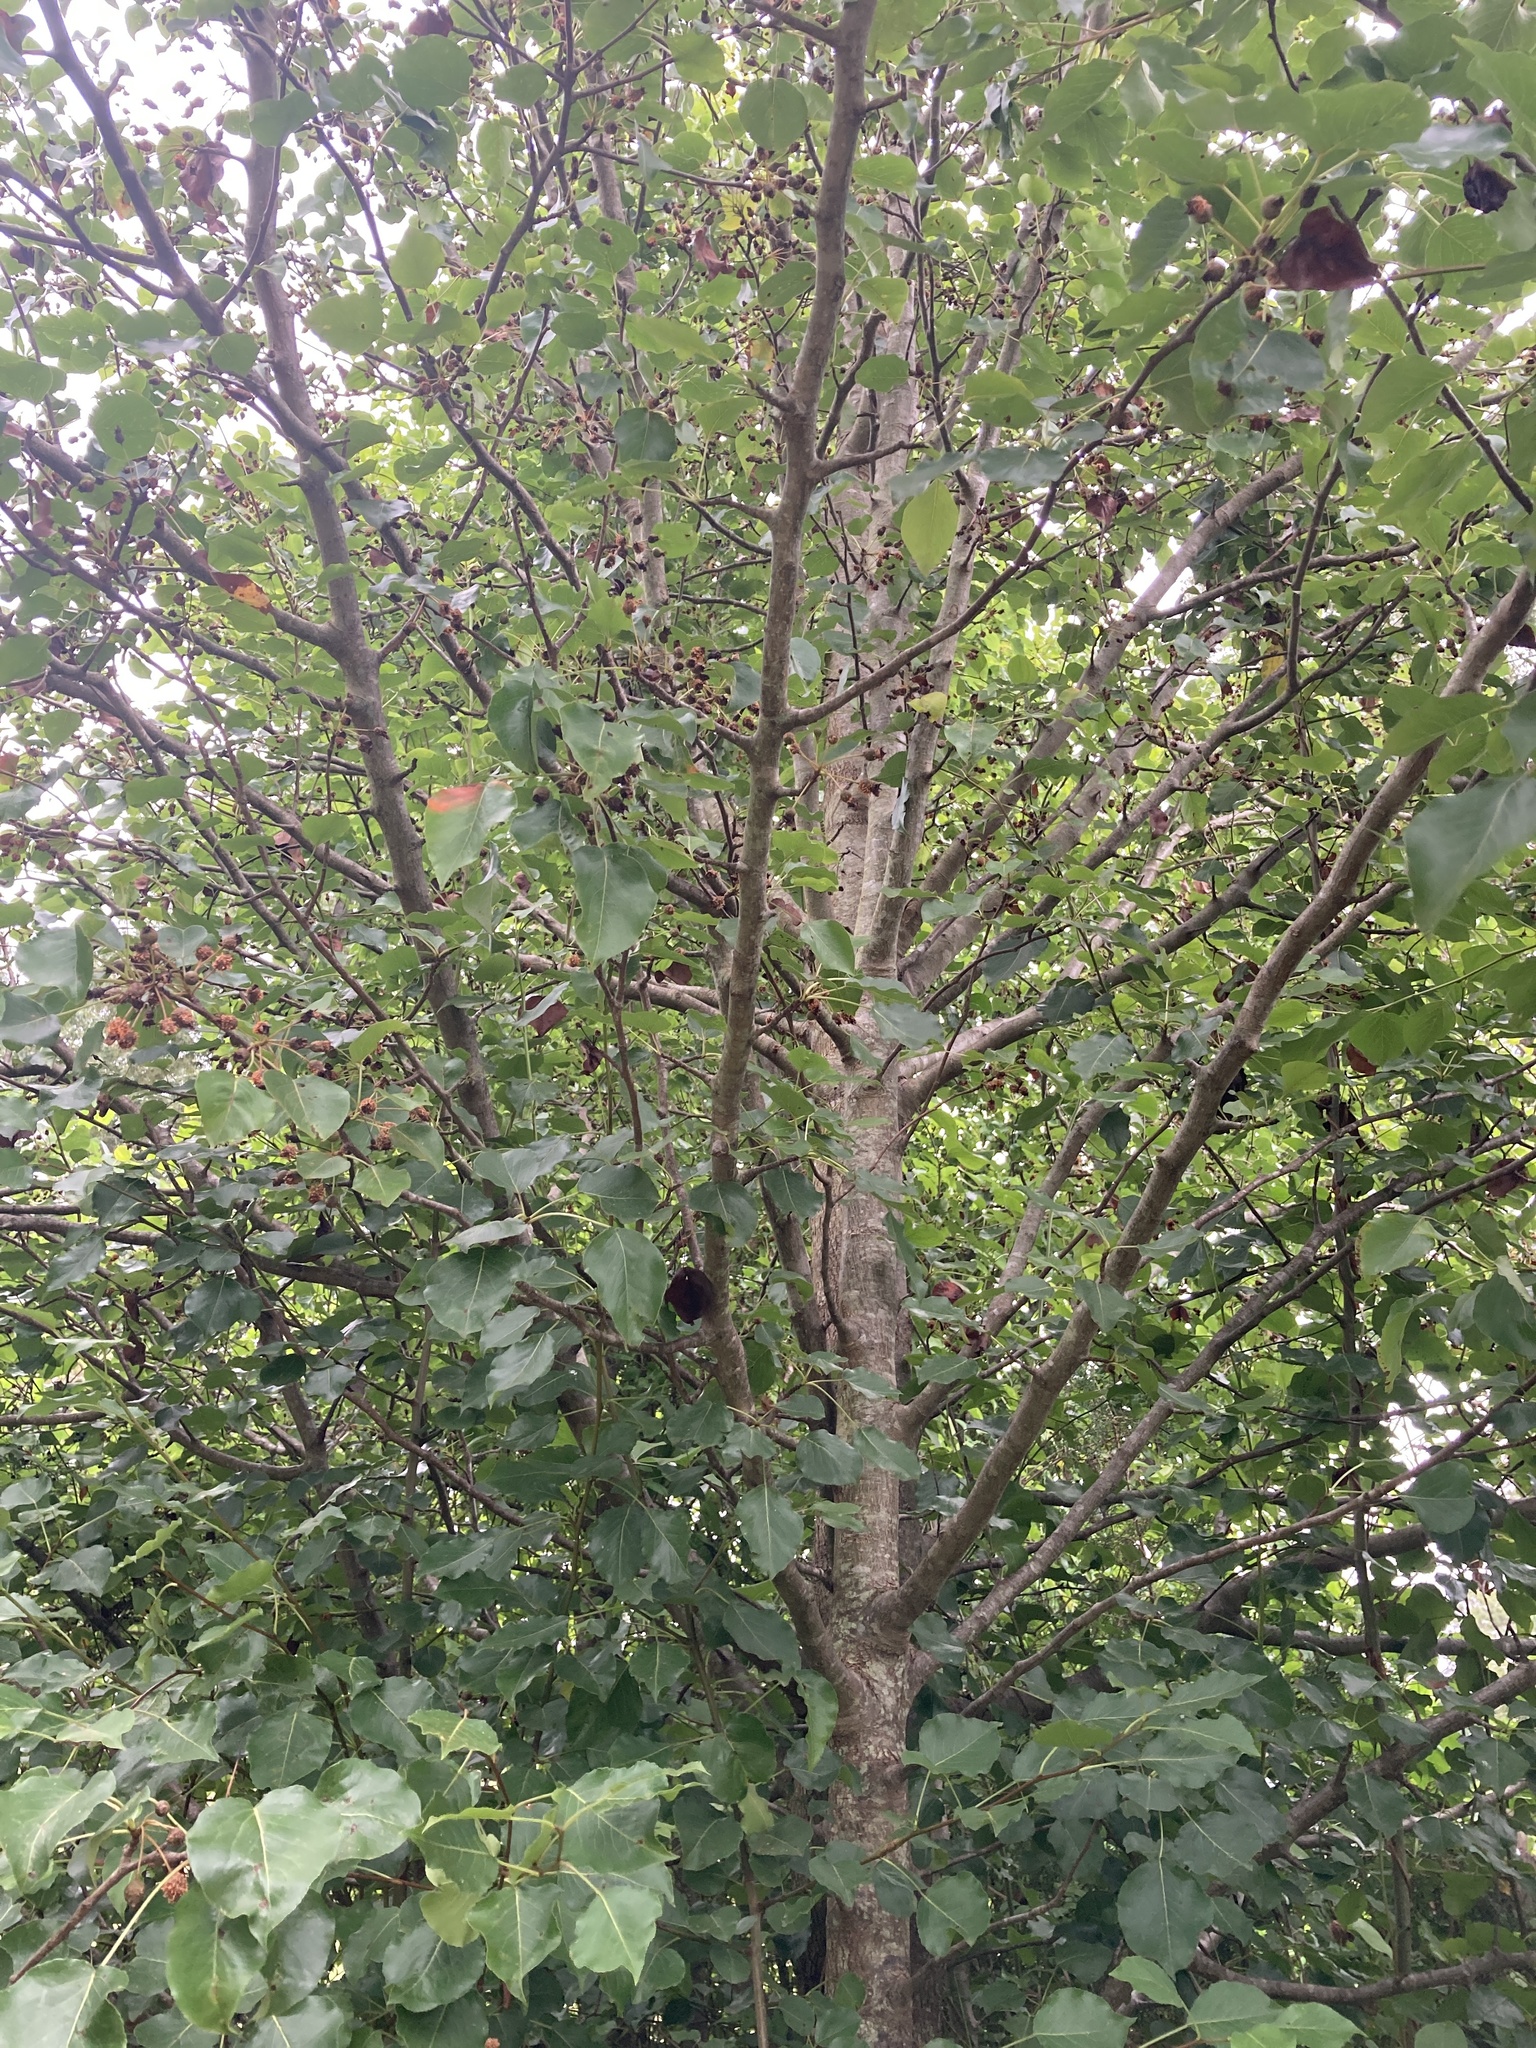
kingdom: Plantae
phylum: Tracheophyta
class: Magnoliopsida
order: Rosales
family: Rosaceae
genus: Pyrus
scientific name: Pyrus calleryana
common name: Callery pear
